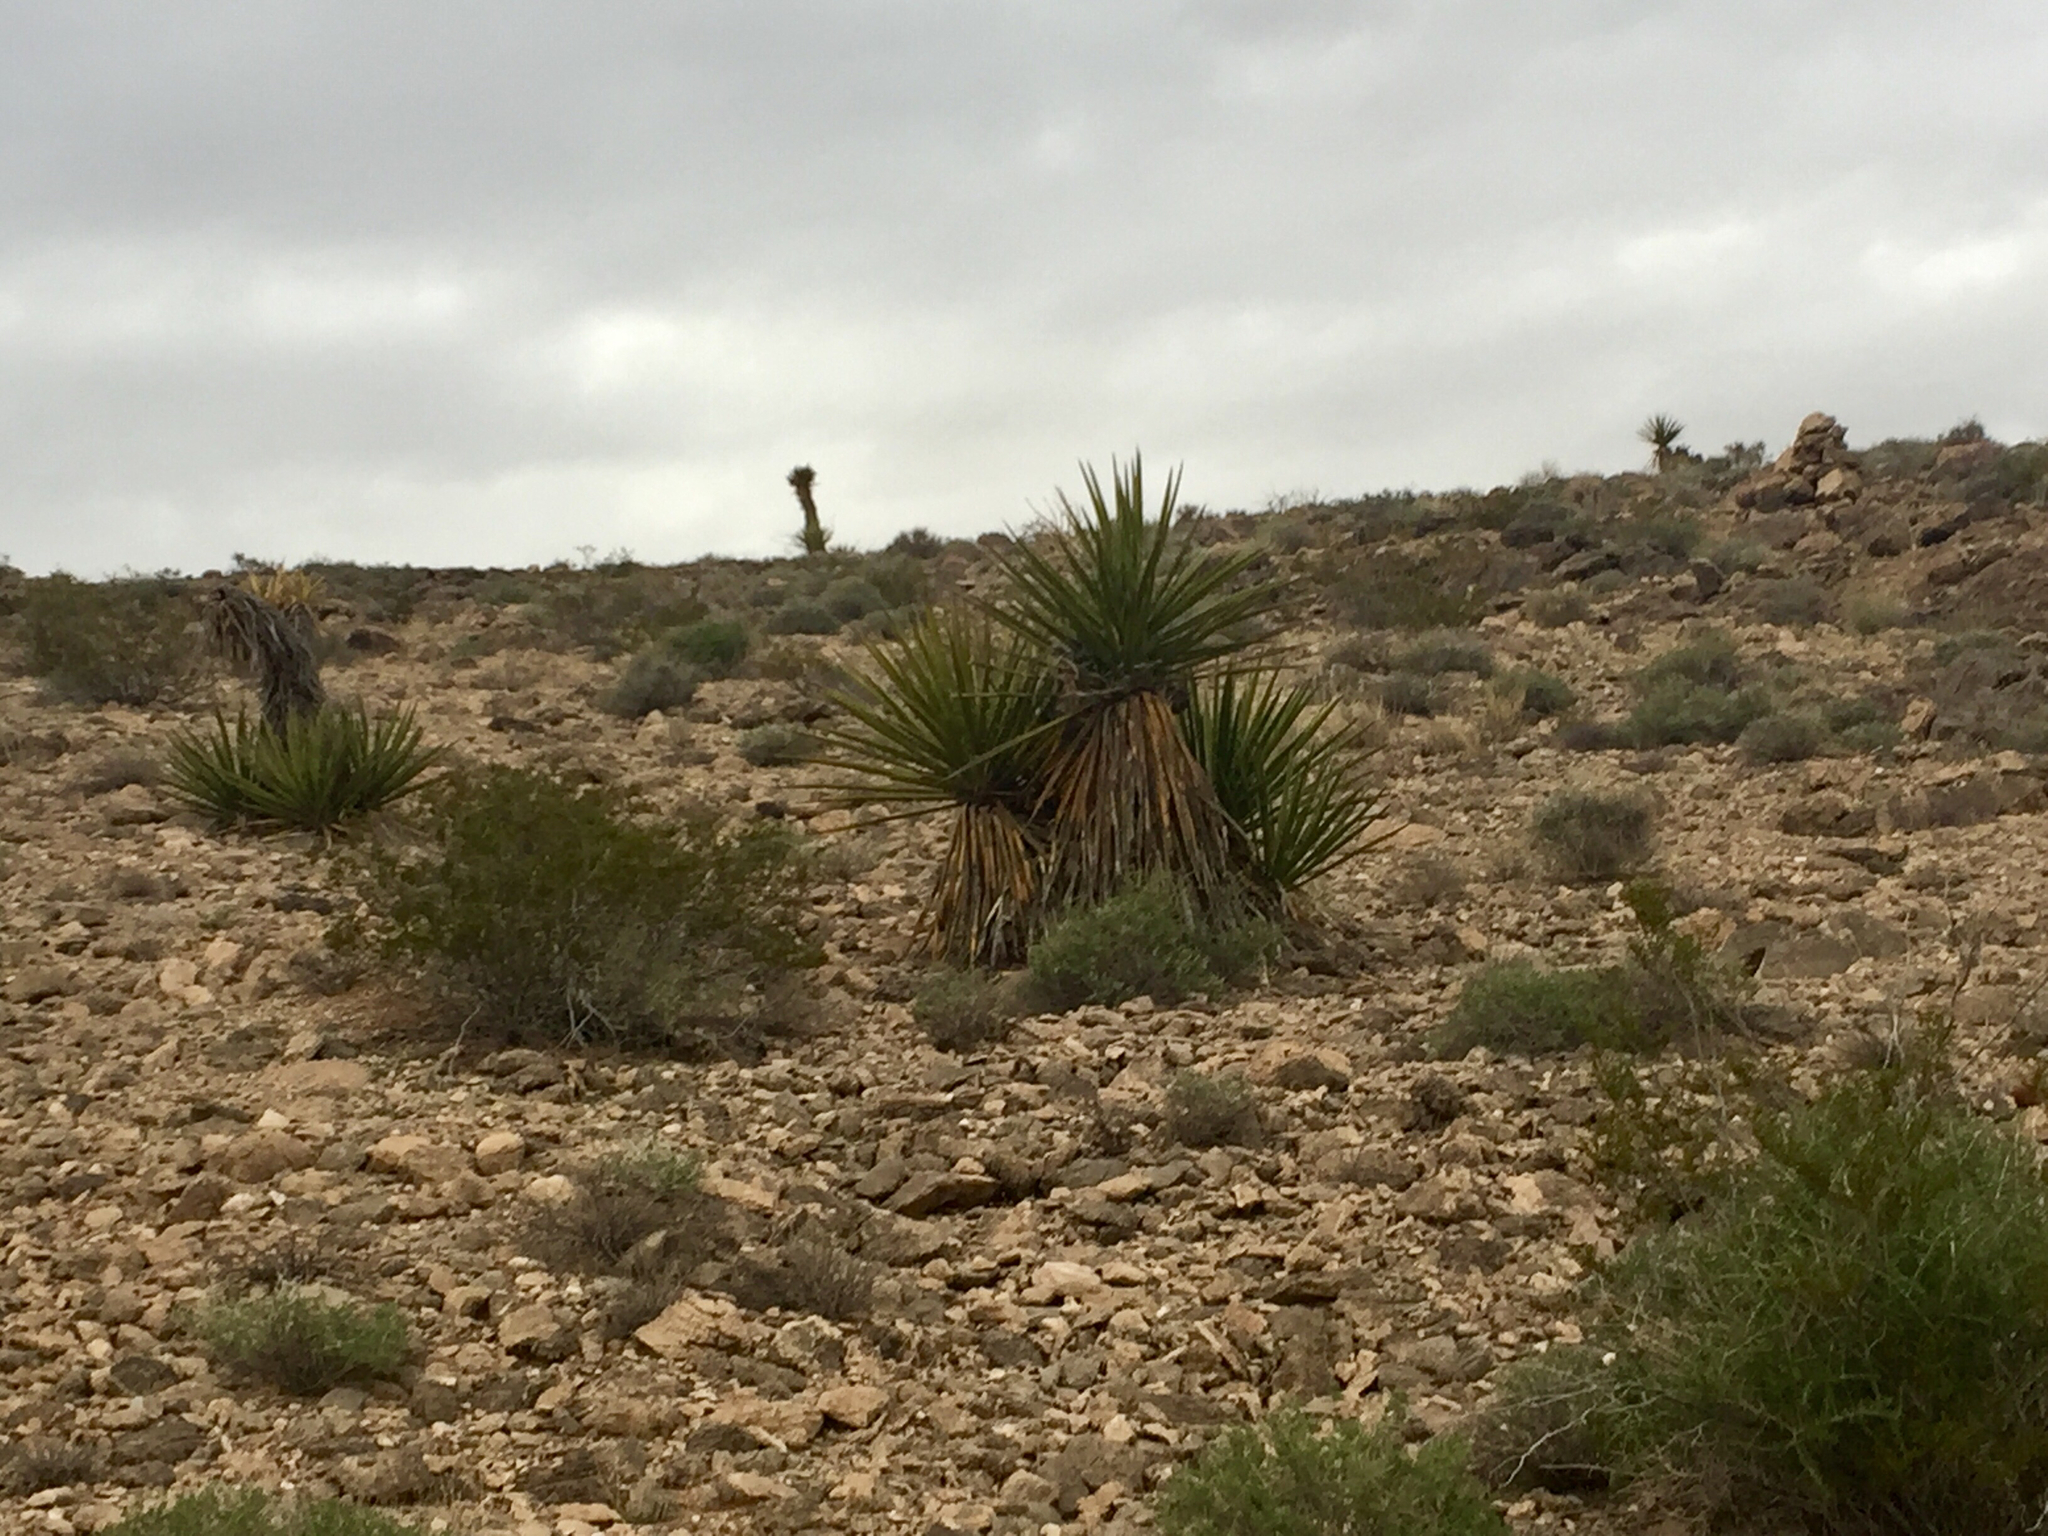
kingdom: Plantae
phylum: Tracheophyta
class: Liliopsida
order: Asparagales
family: Asparagaceae
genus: Yucca
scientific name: Yucca schidigera
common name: Mojave yucca
